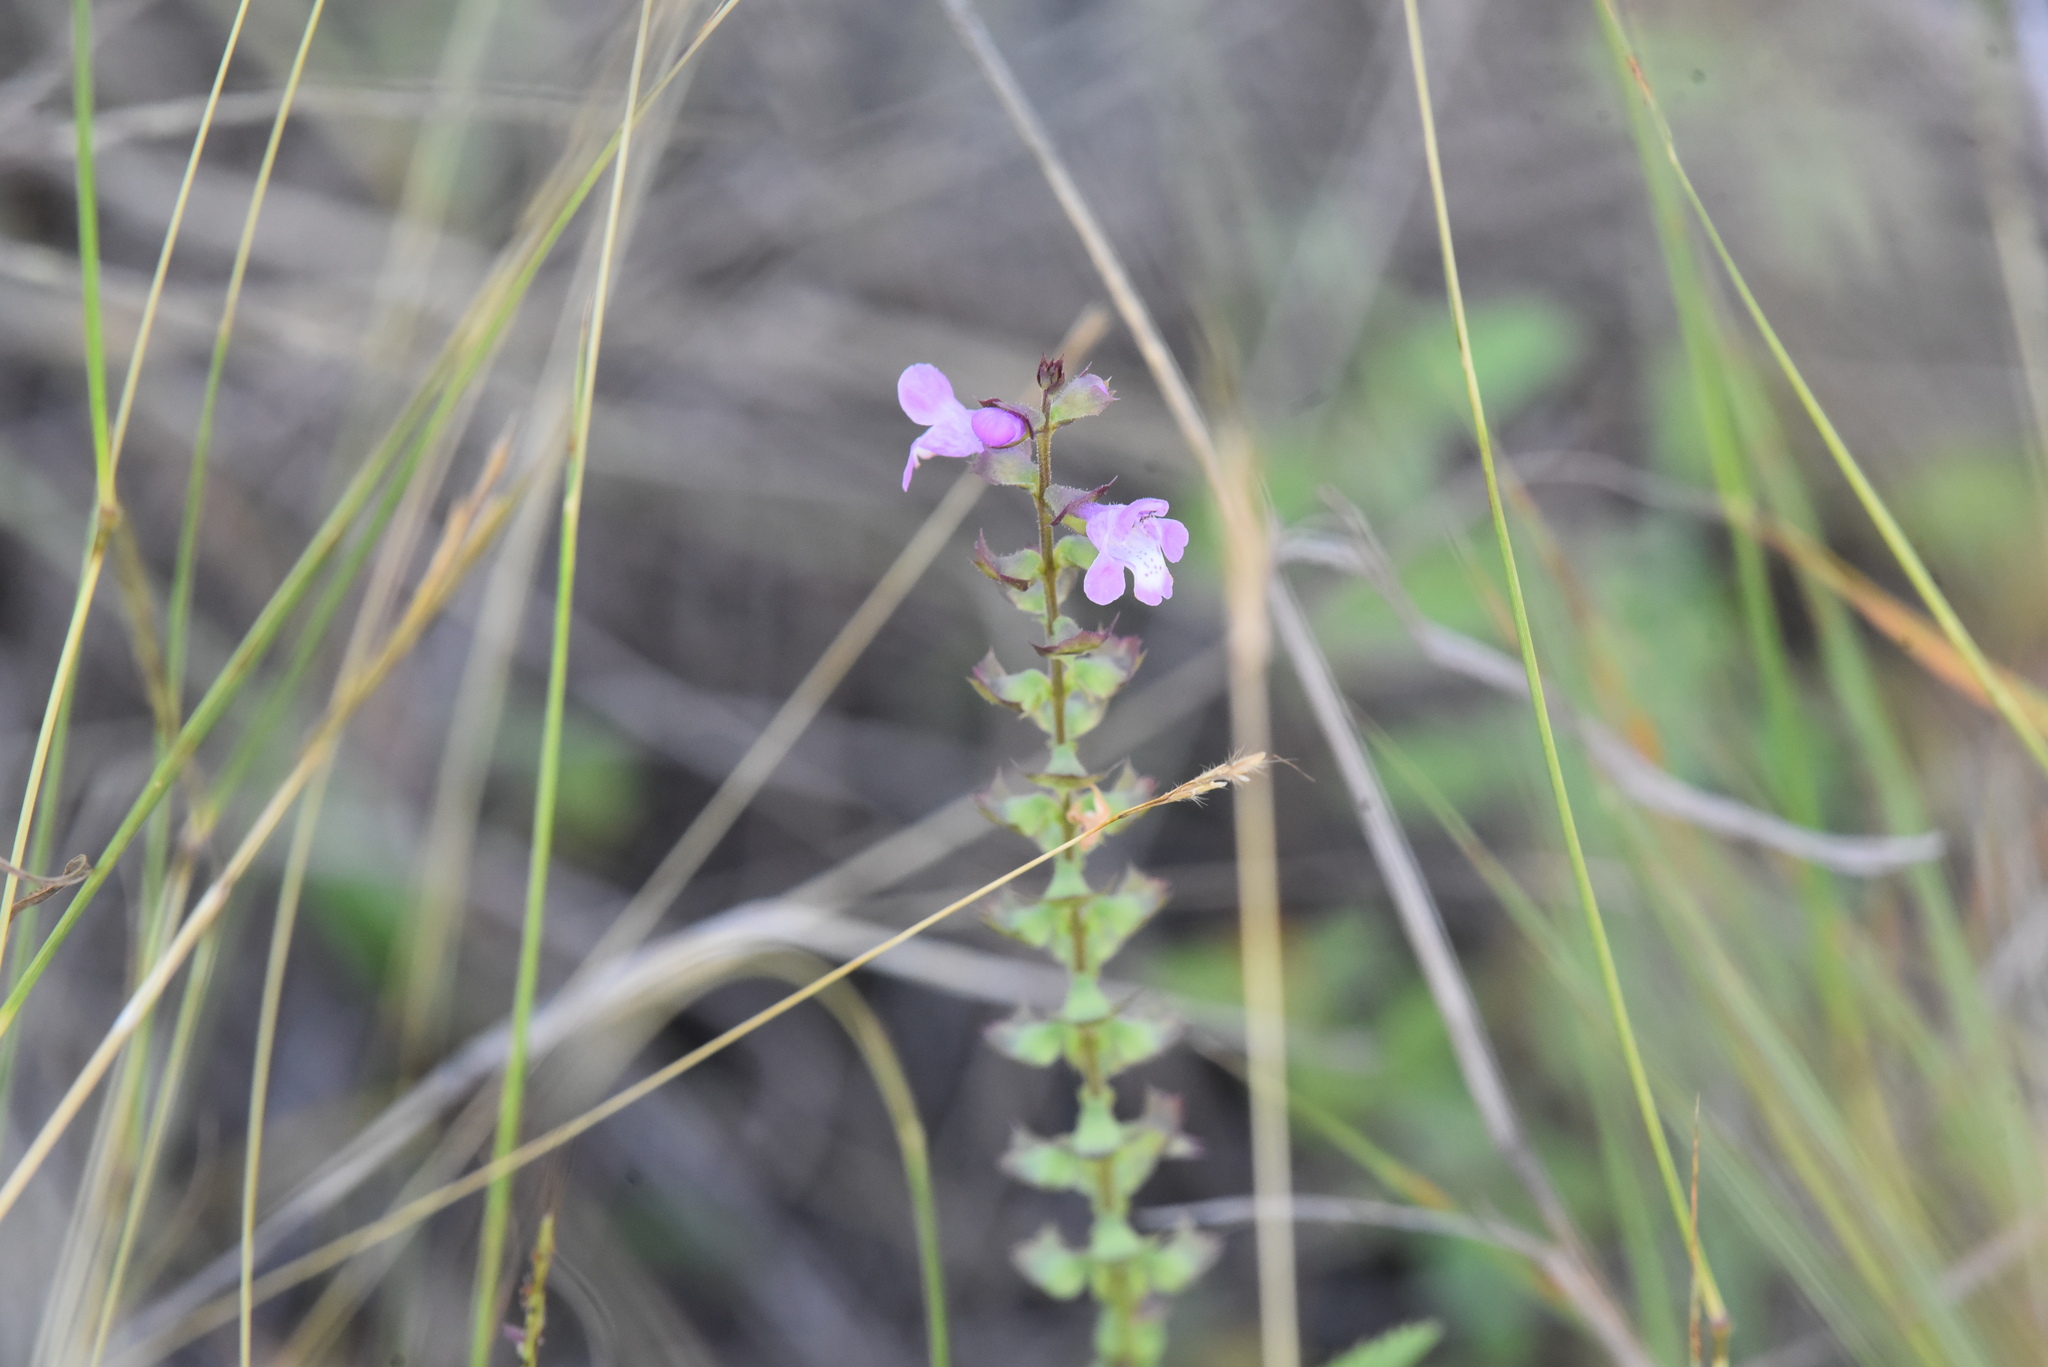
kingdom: Plantae
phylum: Tracheophyta
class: Magnoliopsida
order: Lamiales
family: Lamiaceae
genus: Warnockia
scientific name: Warnockia scutellarioides
